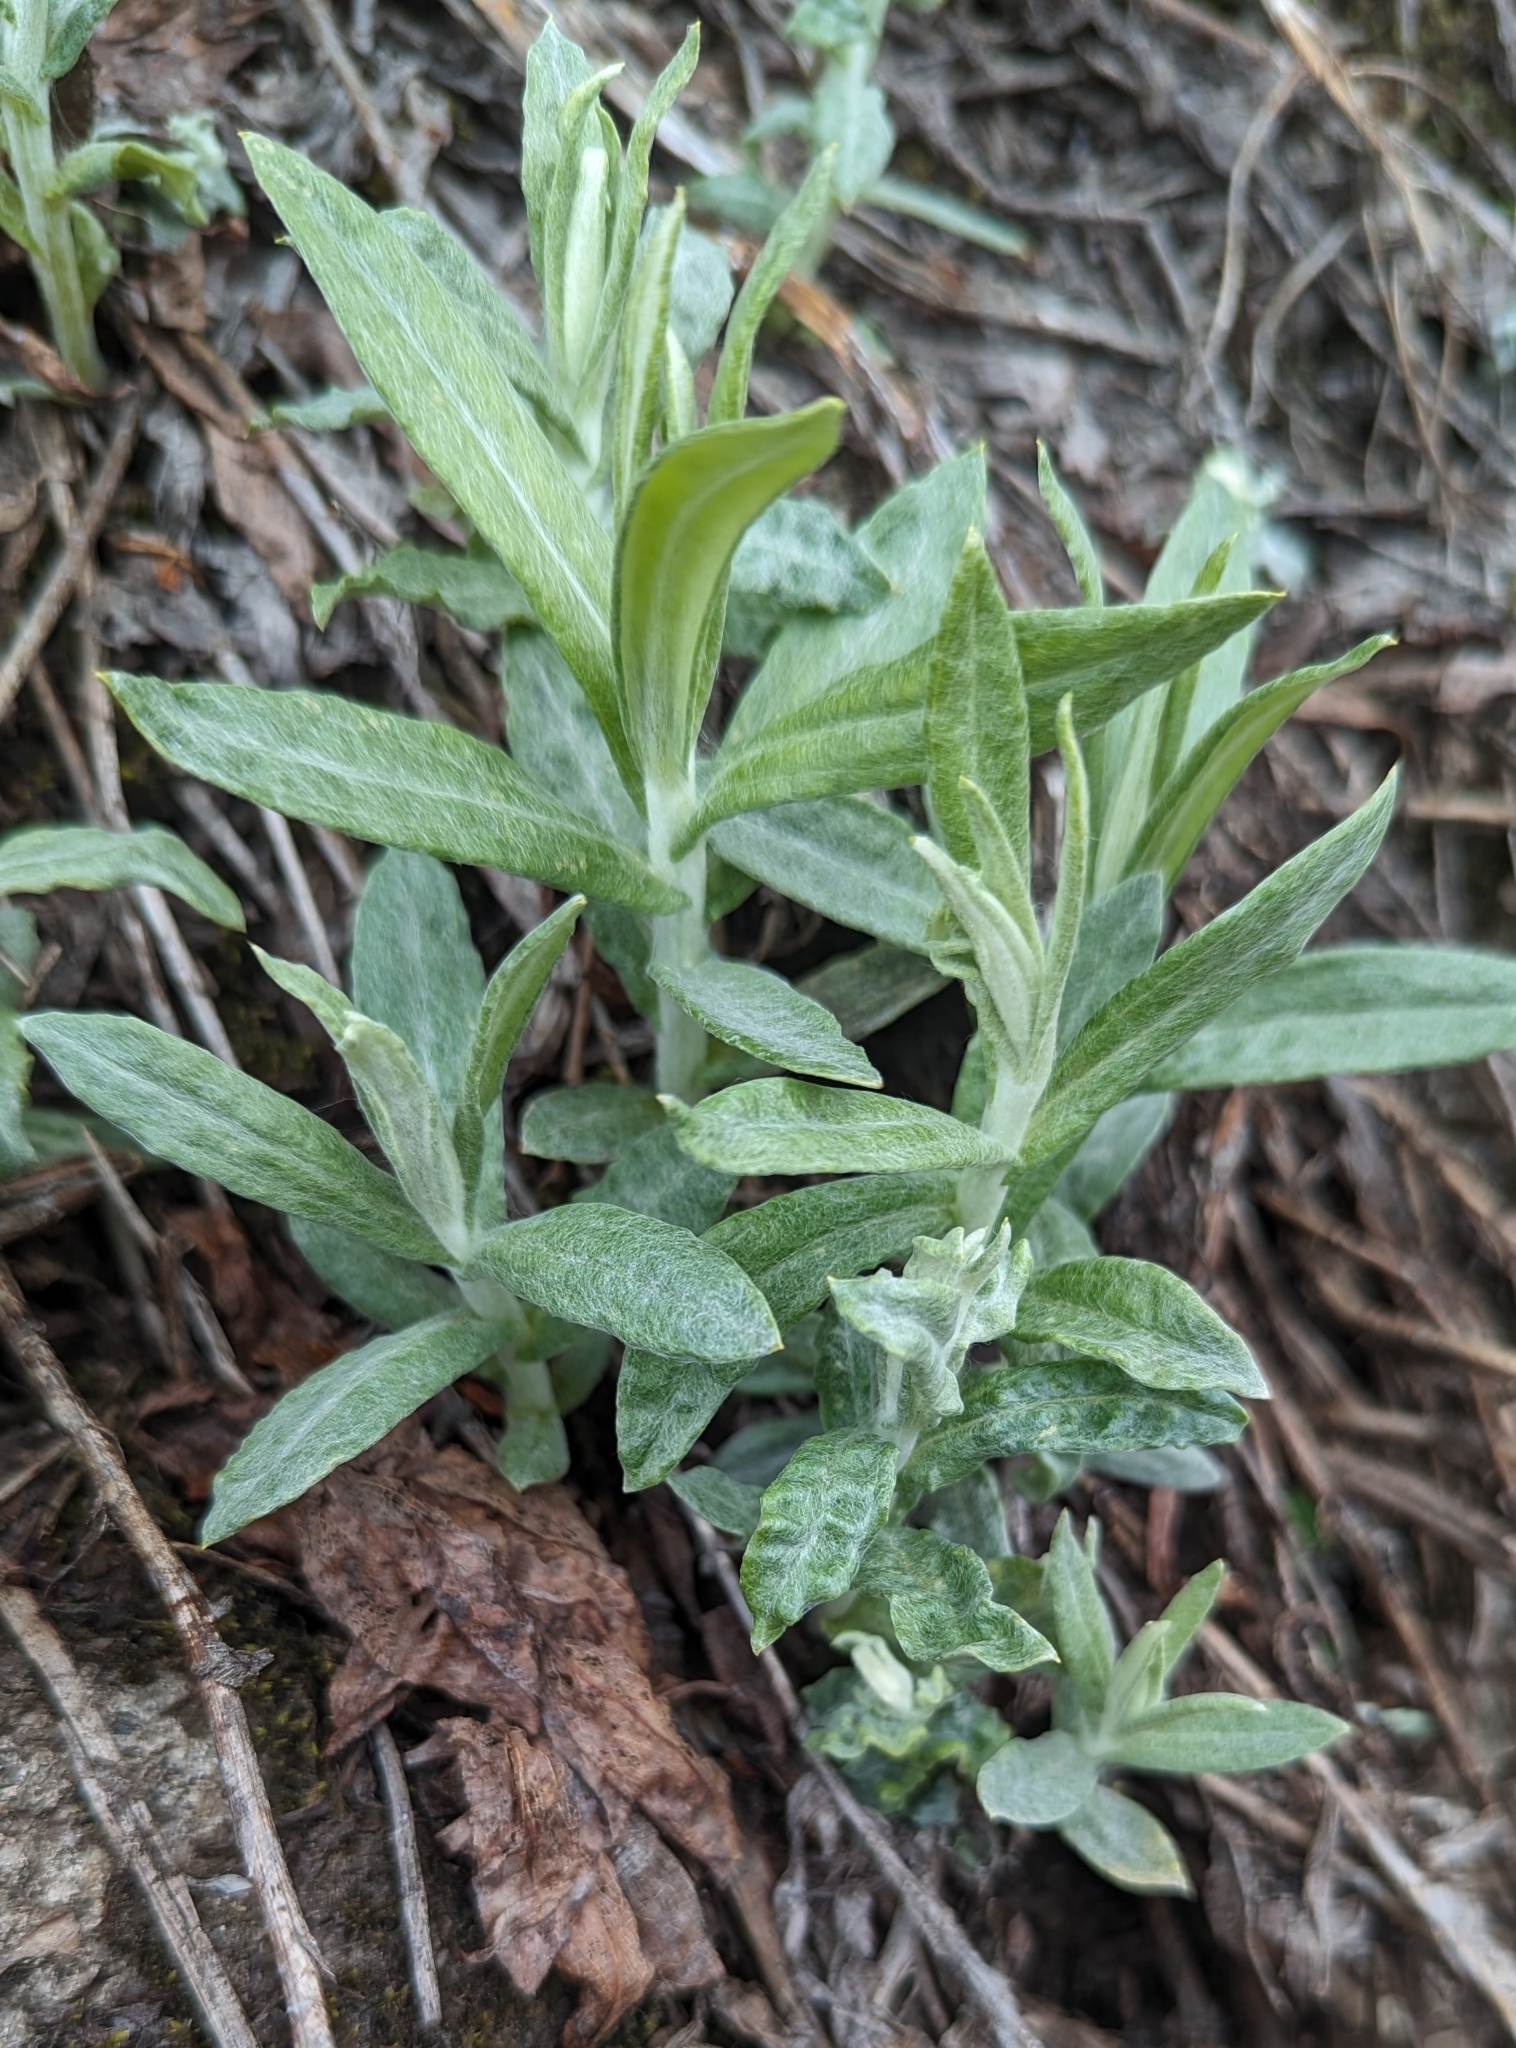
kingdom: Plantae
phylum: Tracheophyta
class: Magnoliopsida
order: Asterales
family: Asteraceae
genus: Anaphalis
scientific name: Anaphalis margaritacea
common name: Pearly everlasting
